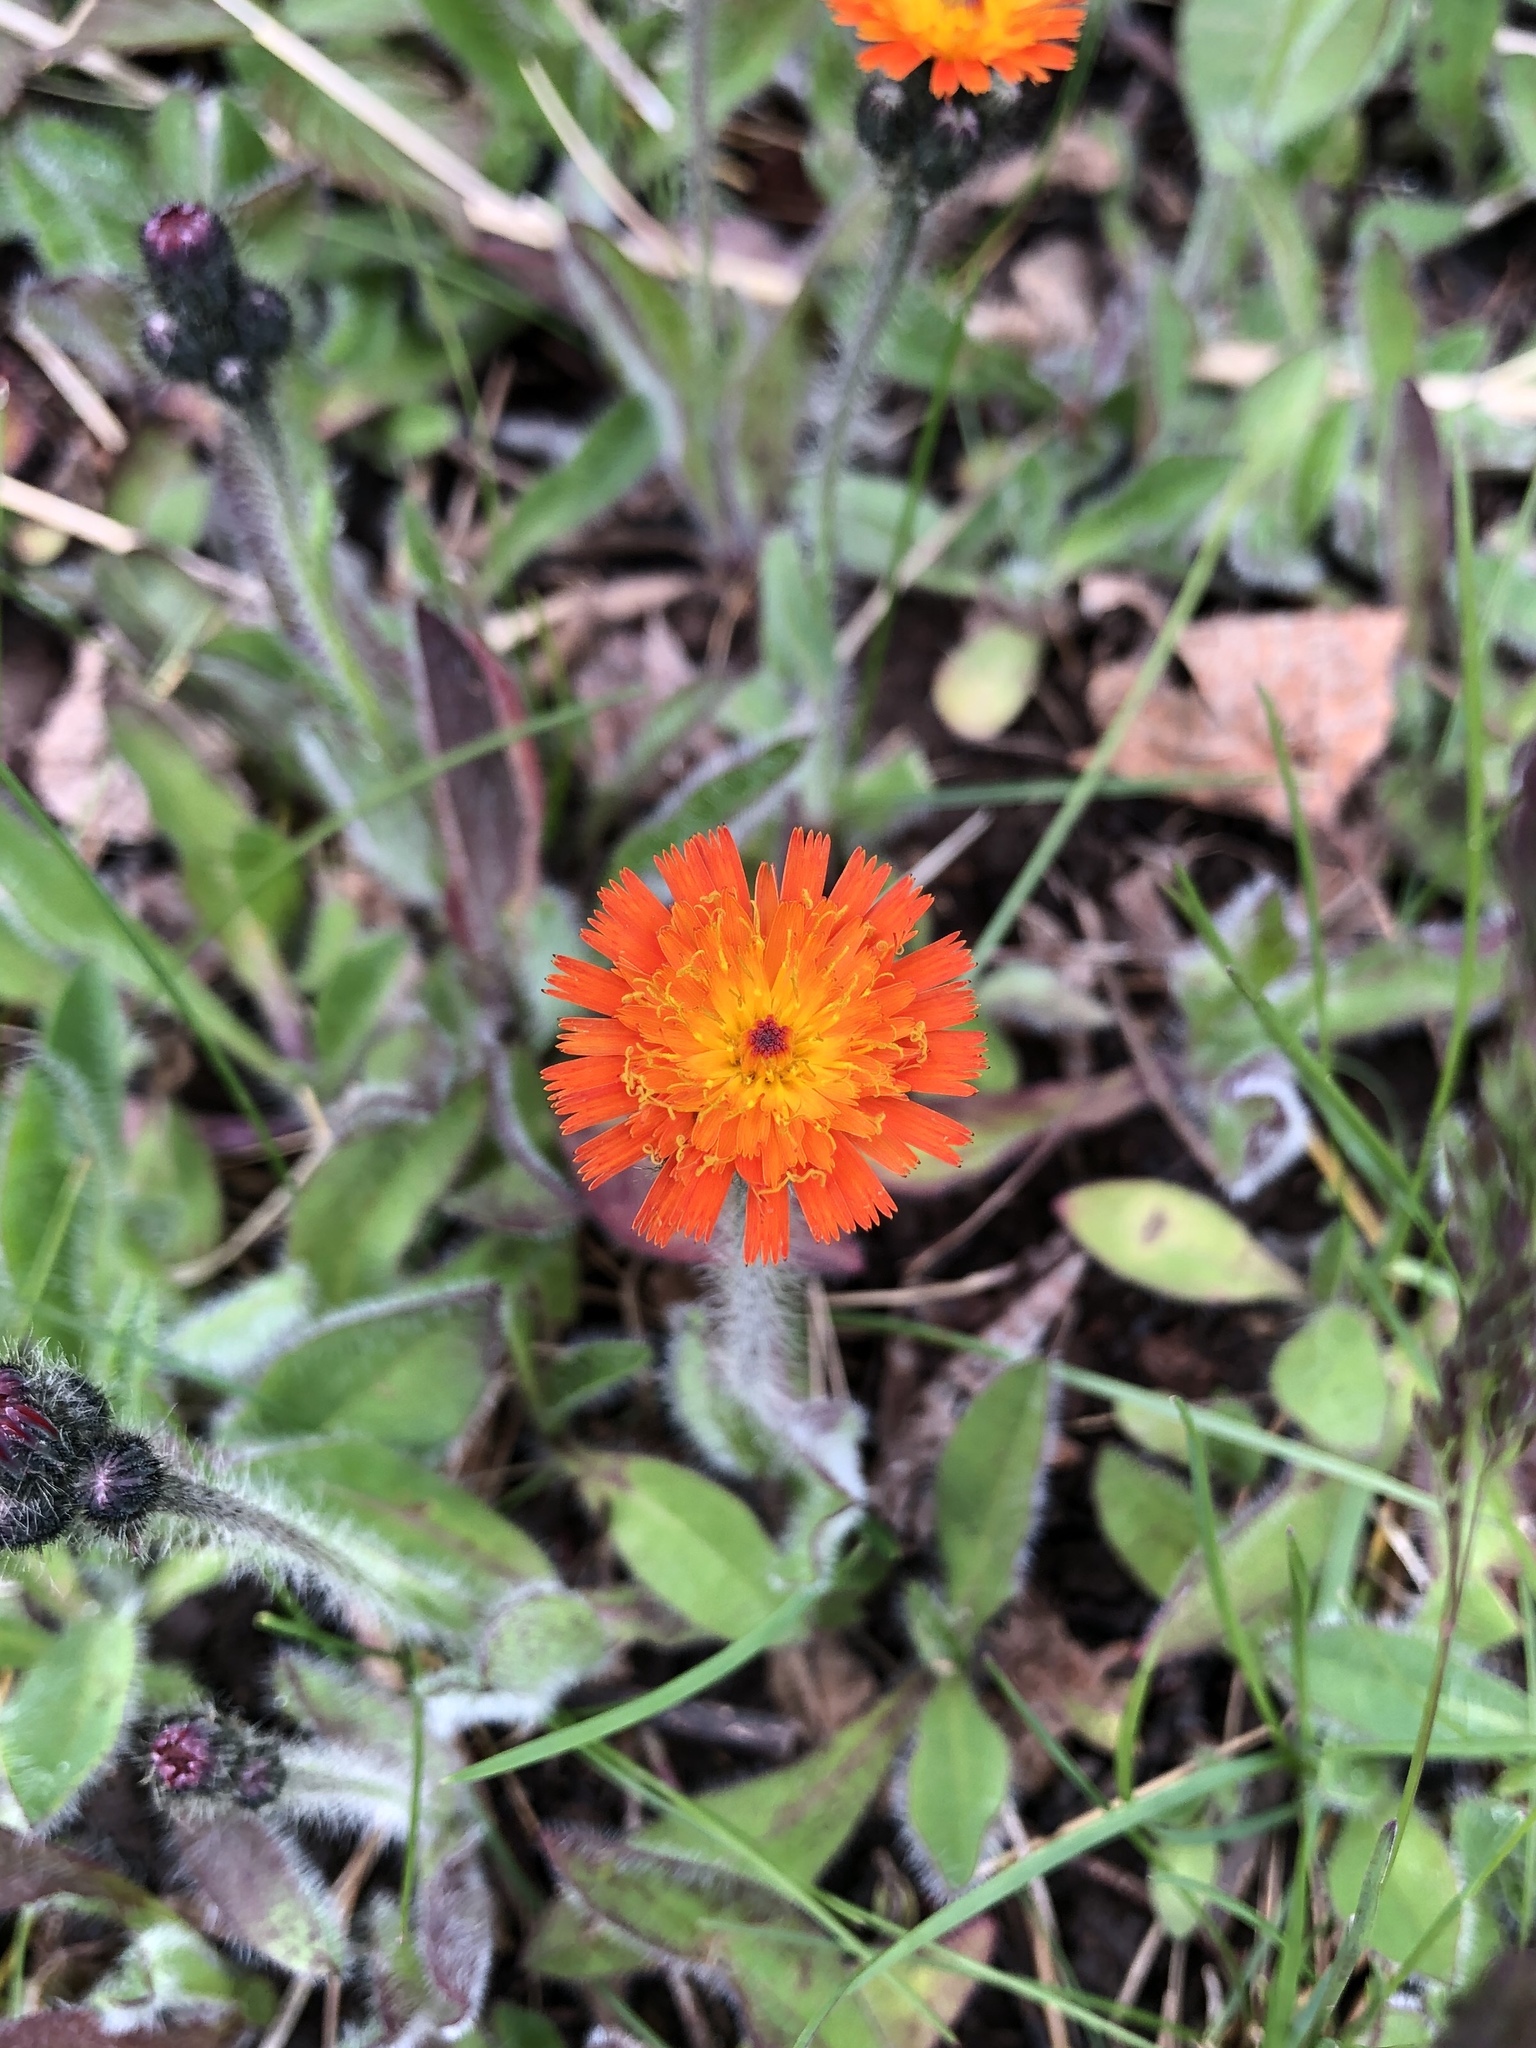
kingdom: Plantae
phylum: Tracheophyta
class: Magnoliopsida
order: Asterales
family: Asteraceae
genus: Pilosella
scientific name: Pilosella aurantiaca
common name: Fox-and-cubs
